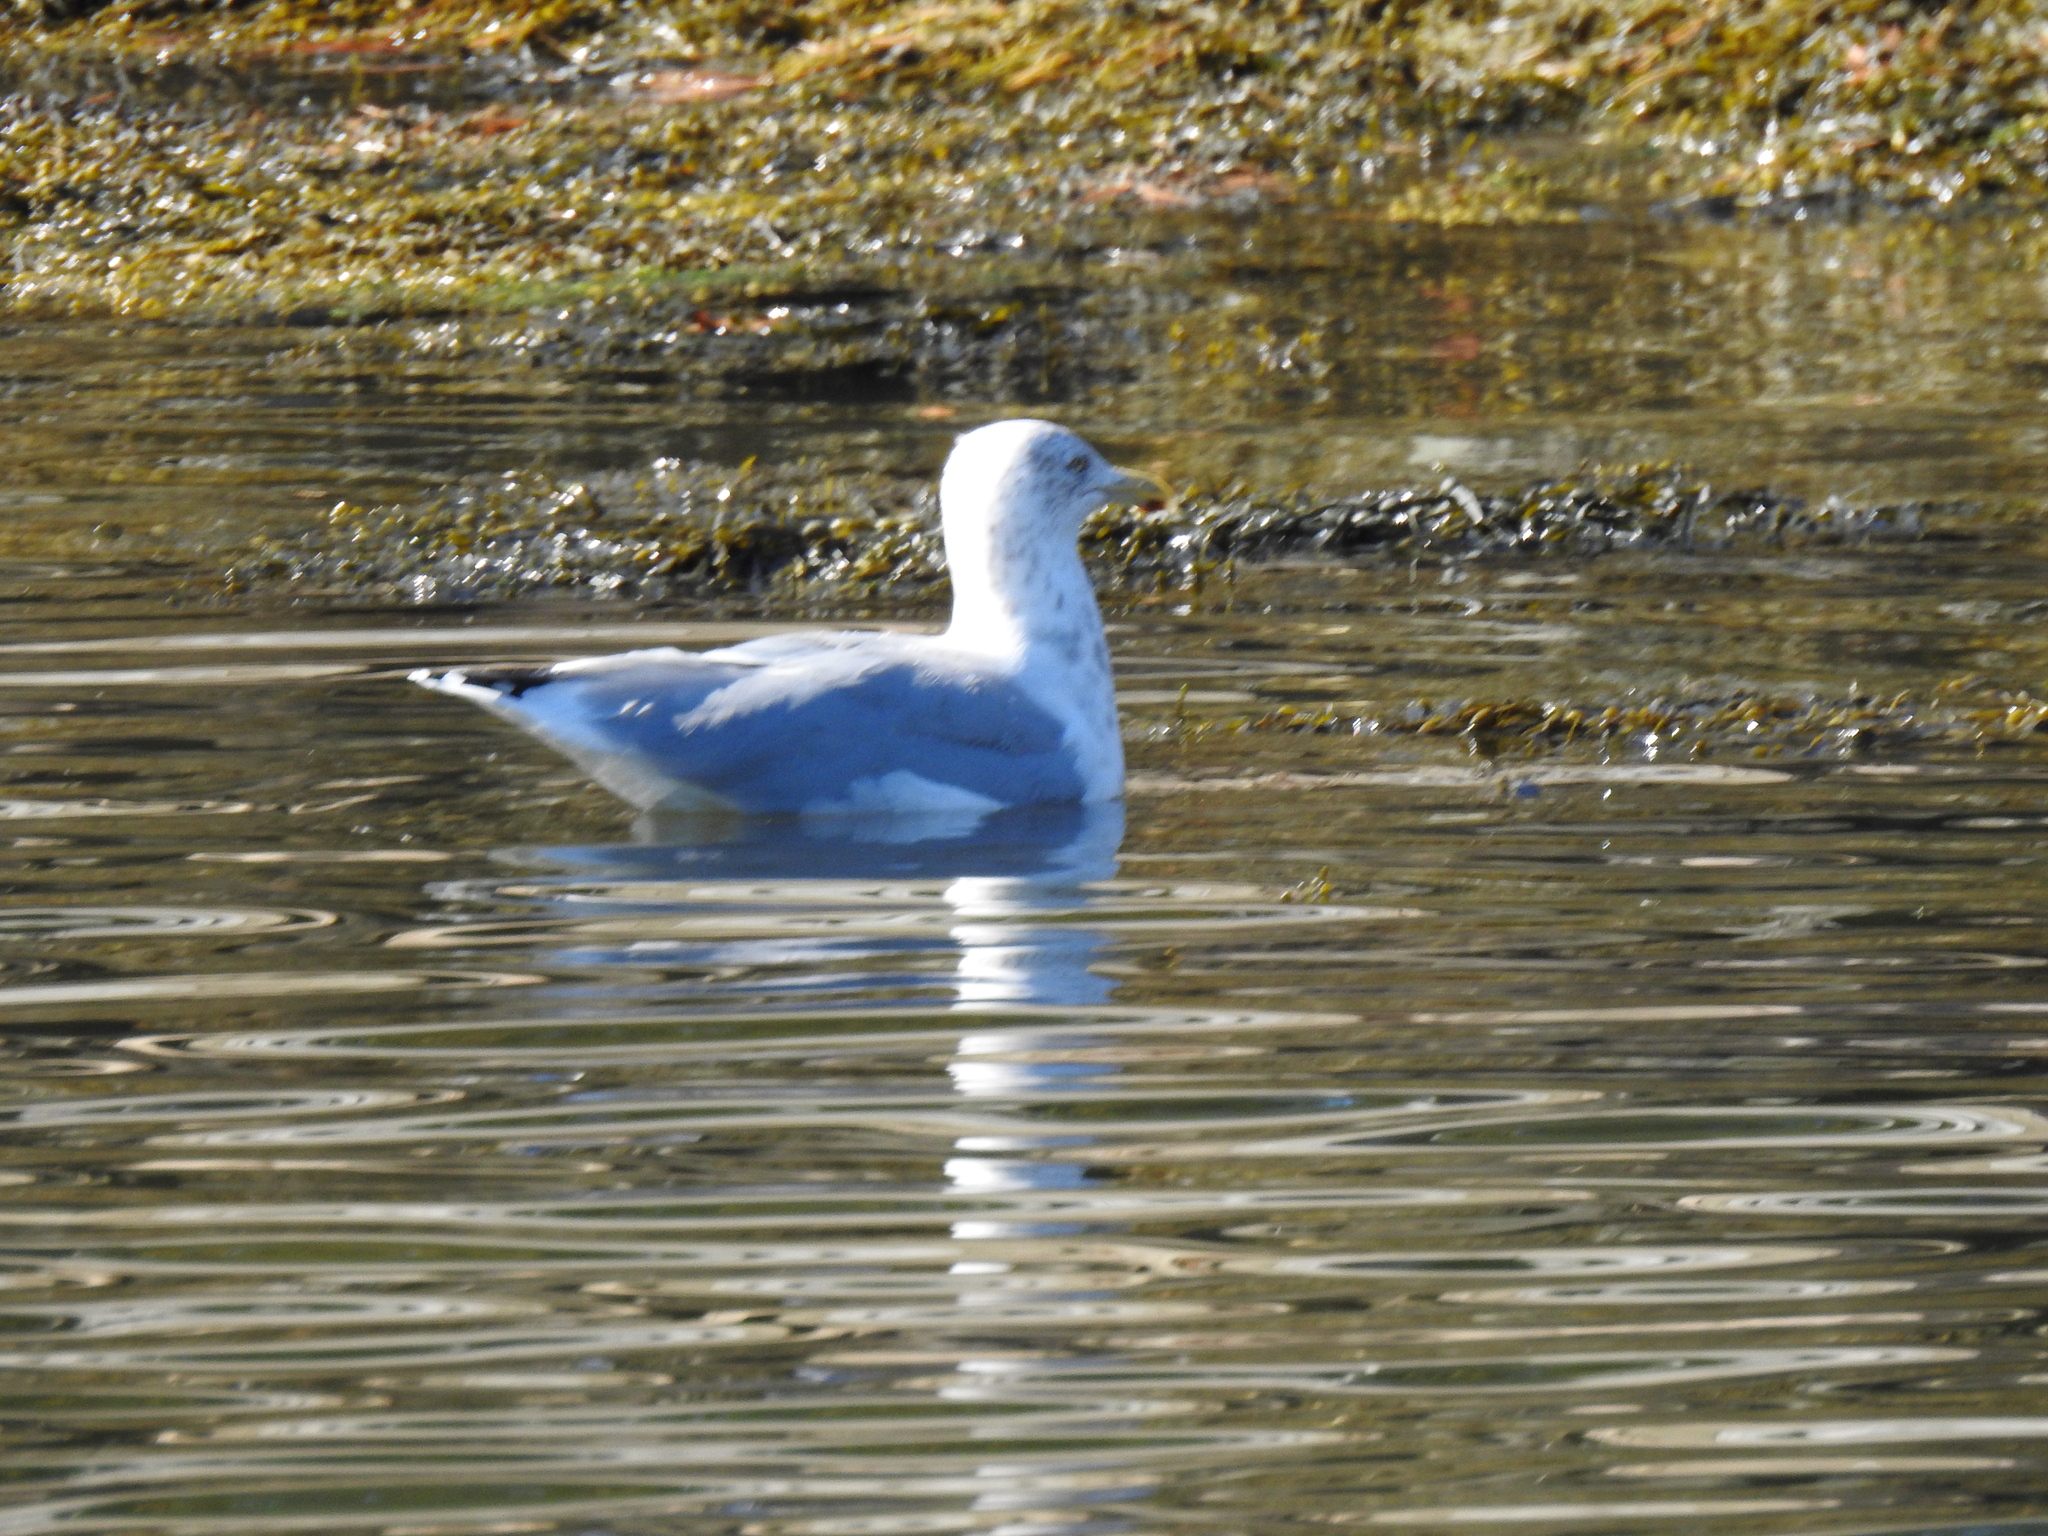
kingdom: Animalia
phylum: Chordata
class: Aves
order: Charadriiformes
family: Laridae
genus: Larus
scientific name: Larus argentatus
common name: Herring gull
